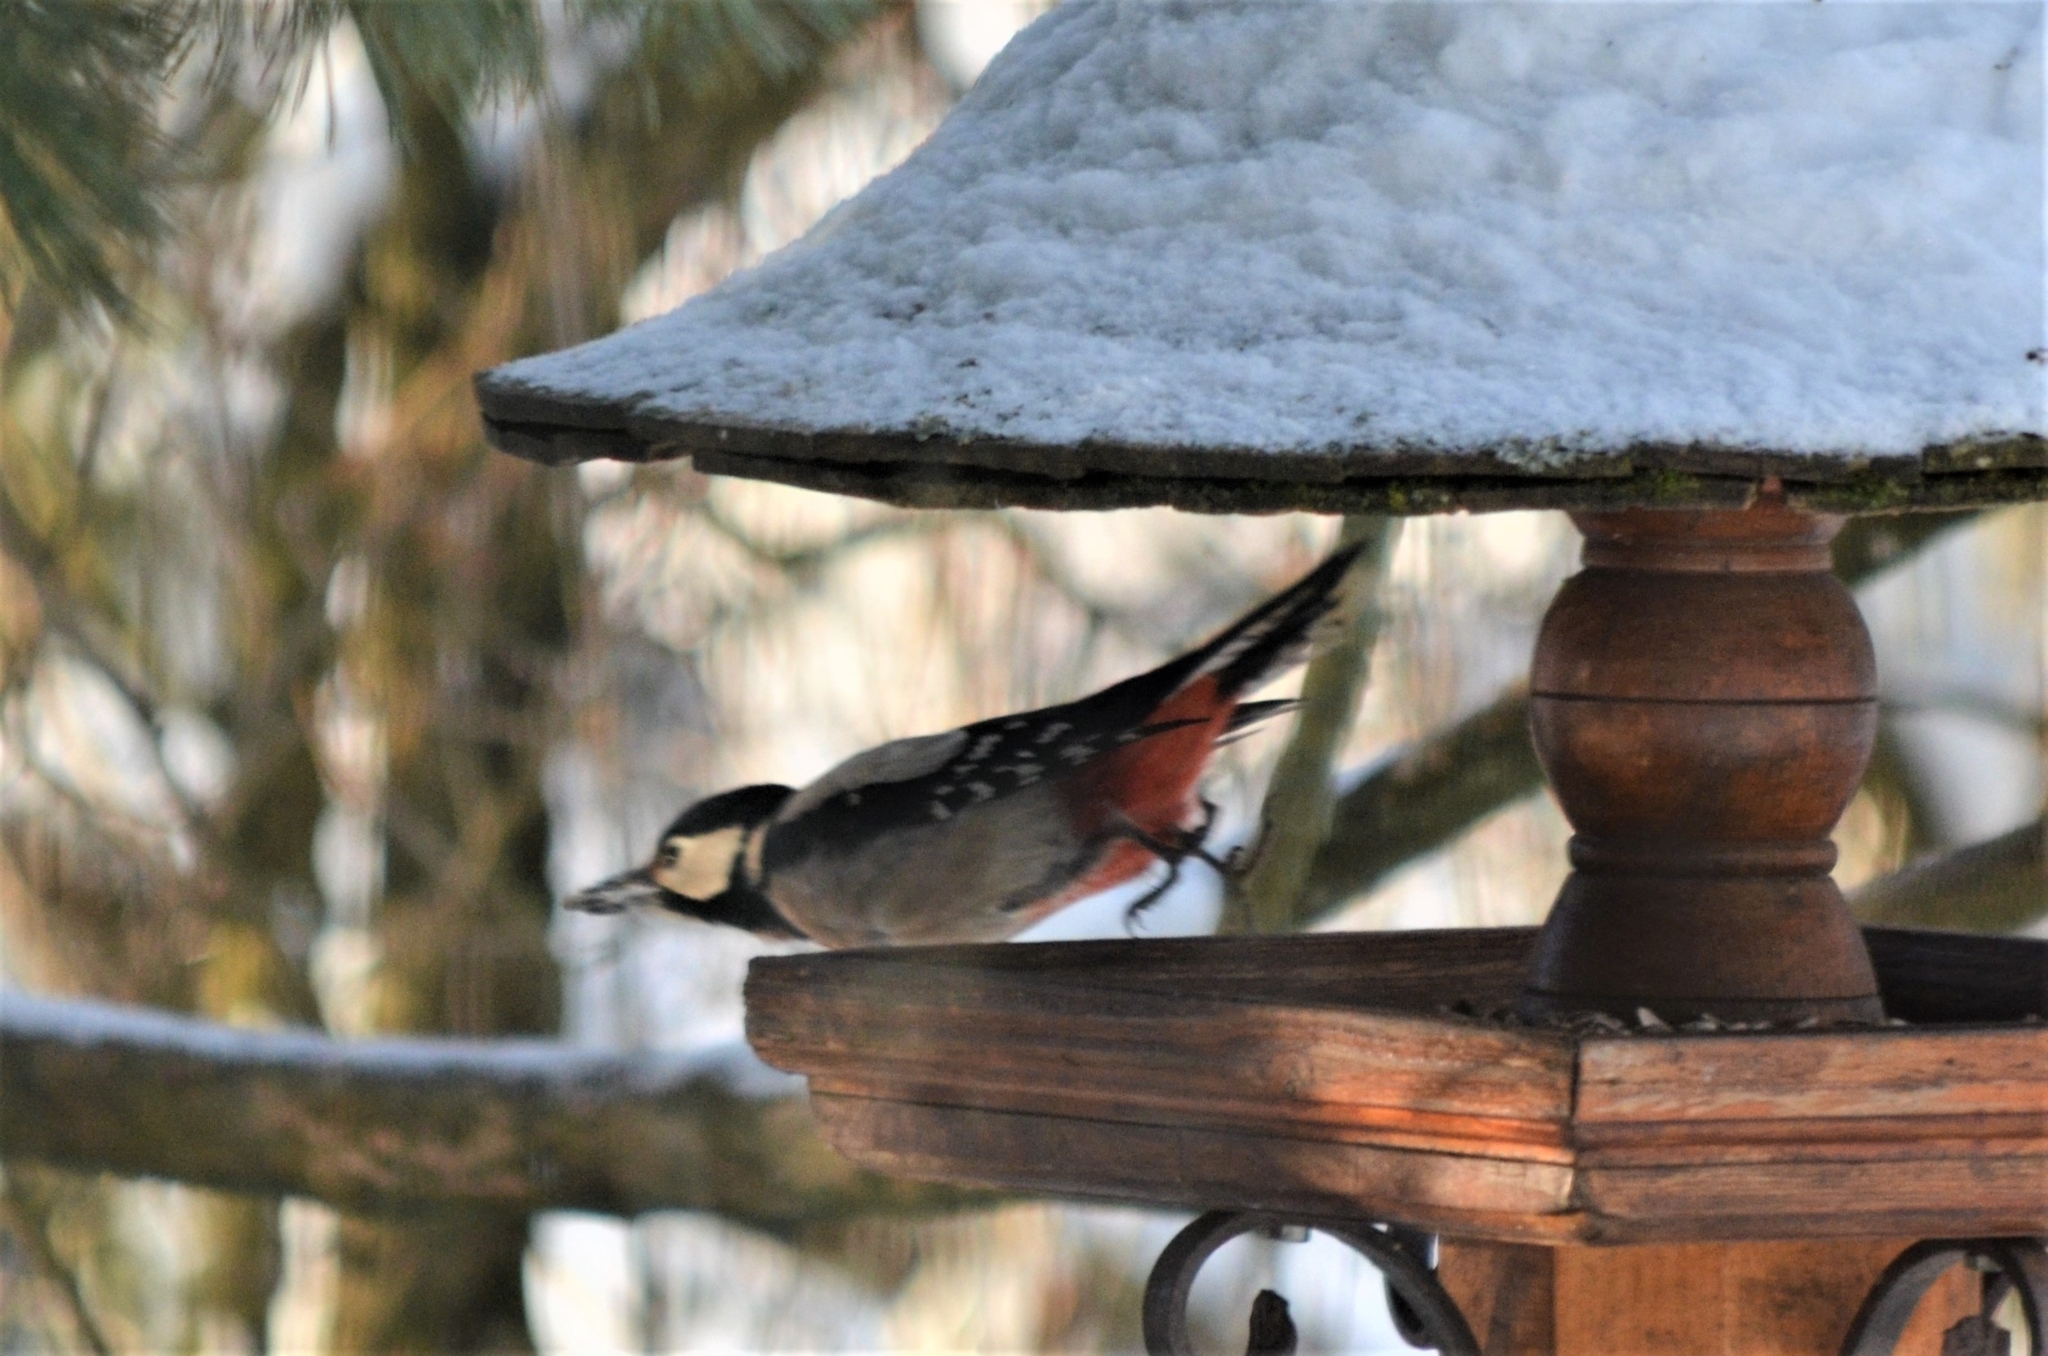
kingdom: Animalia
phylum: Chordata
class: Aves
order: Piciformes
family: Picidae
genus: Dendrocopos
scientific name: Dendrocopos major
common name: Great spotted woodpecker
